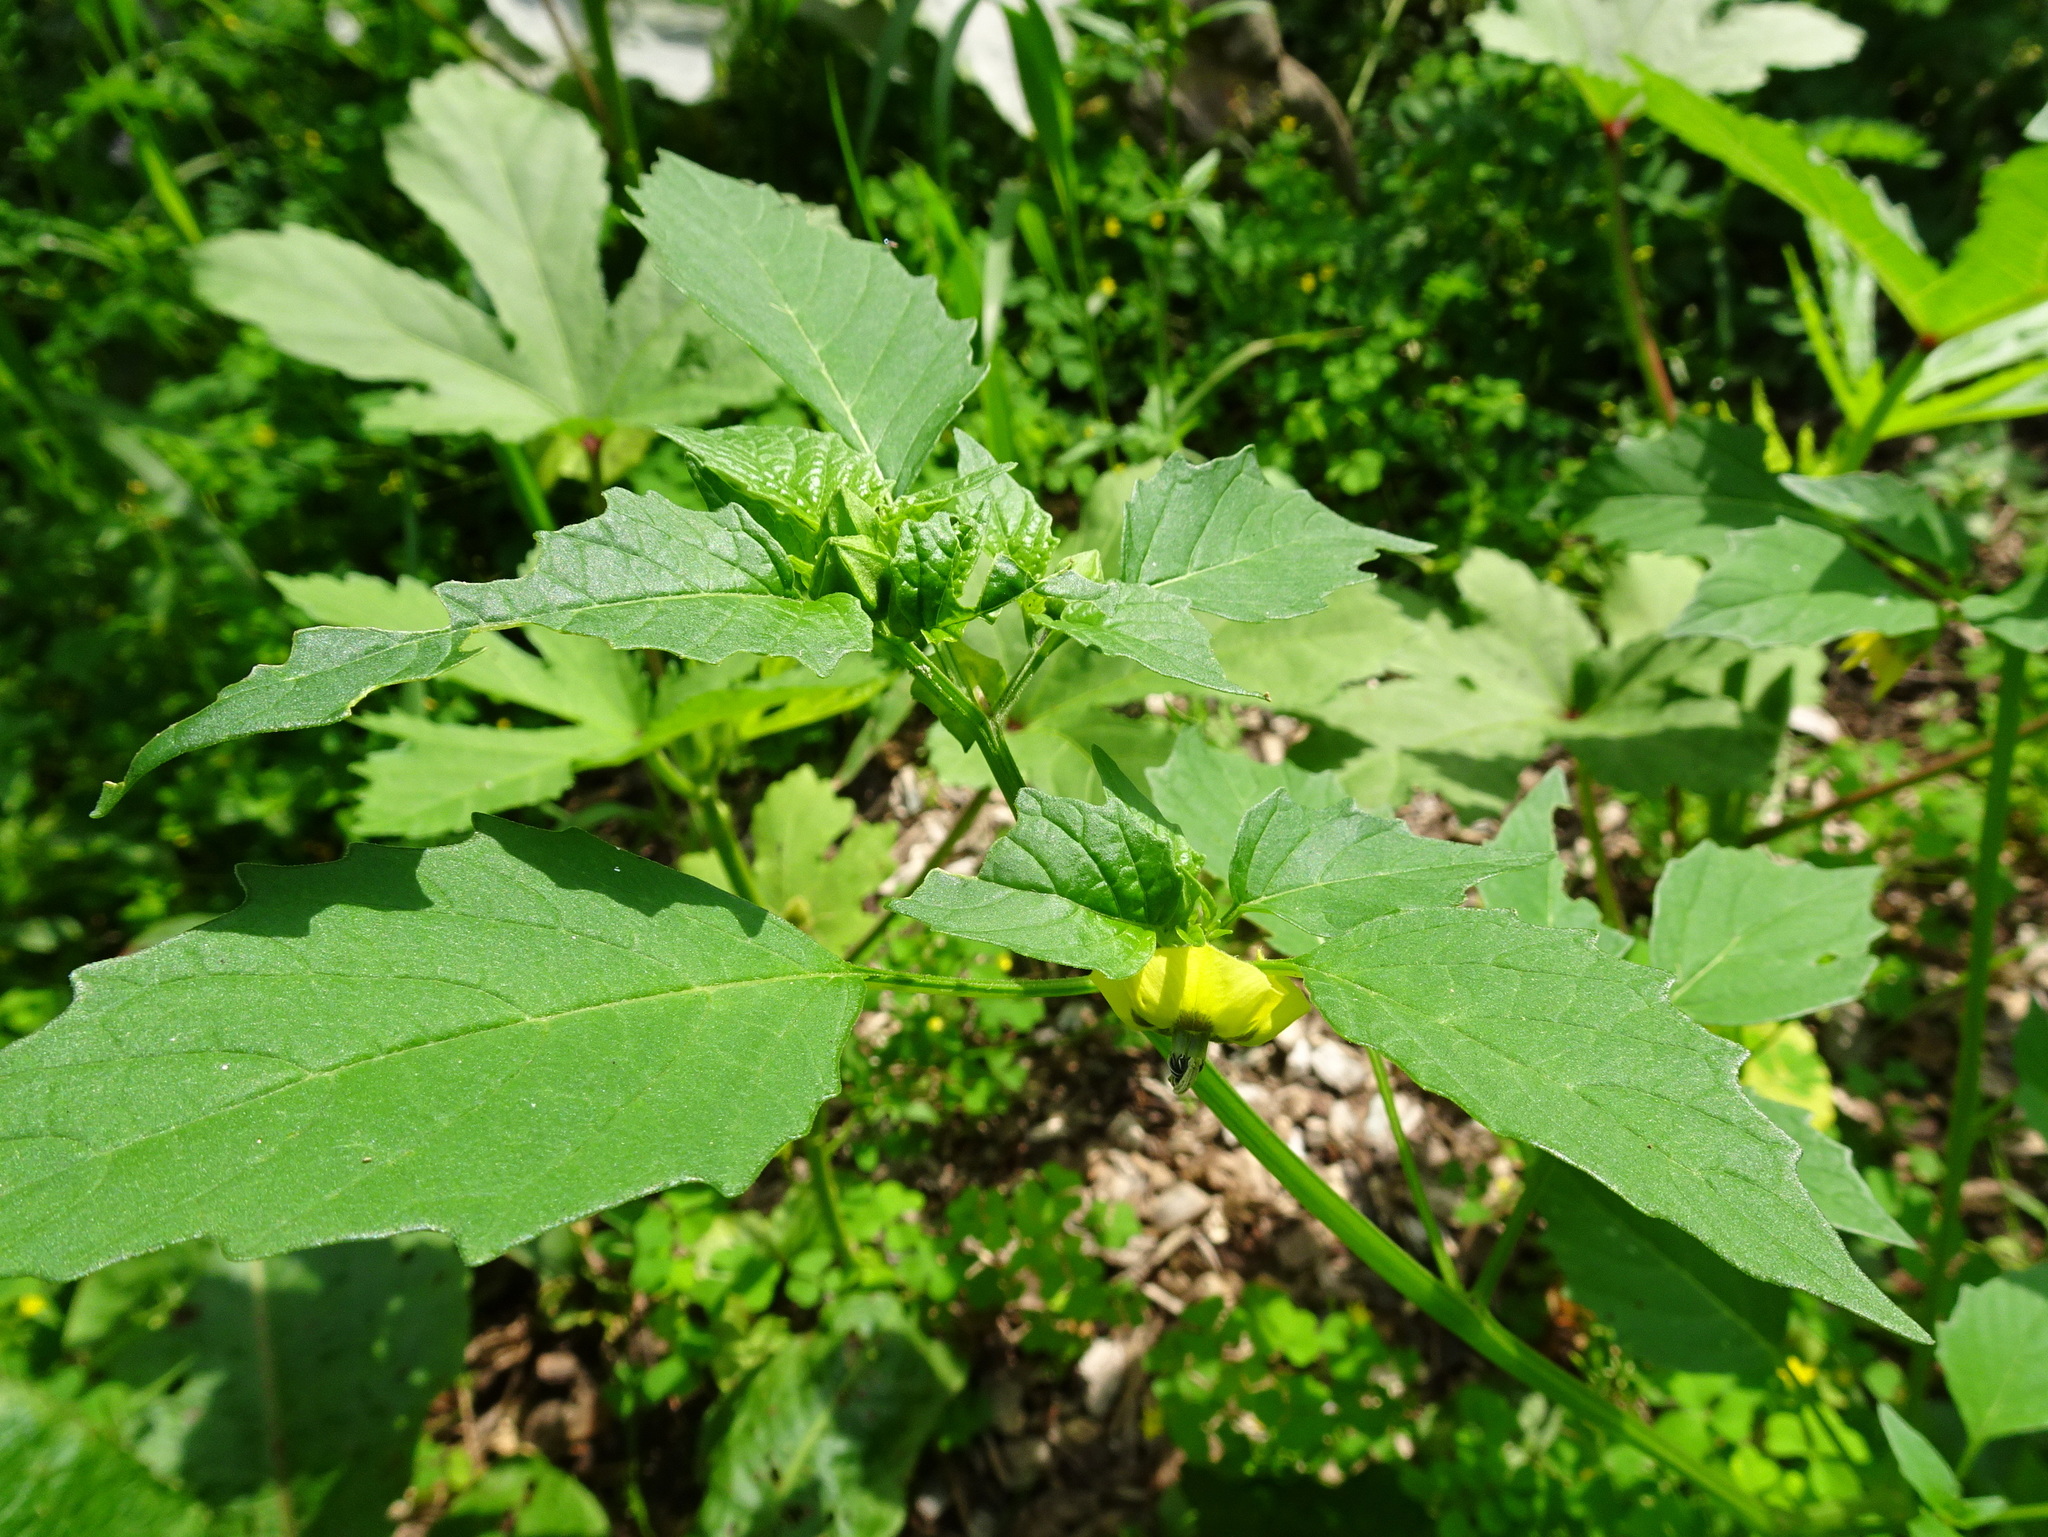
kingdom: Plantae
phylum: Tracheophyta
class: Magnoliopsida
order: Solanales
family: Solanaceae
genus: Physalis
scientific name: Physalis philadelphica
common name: Husk-tomato
